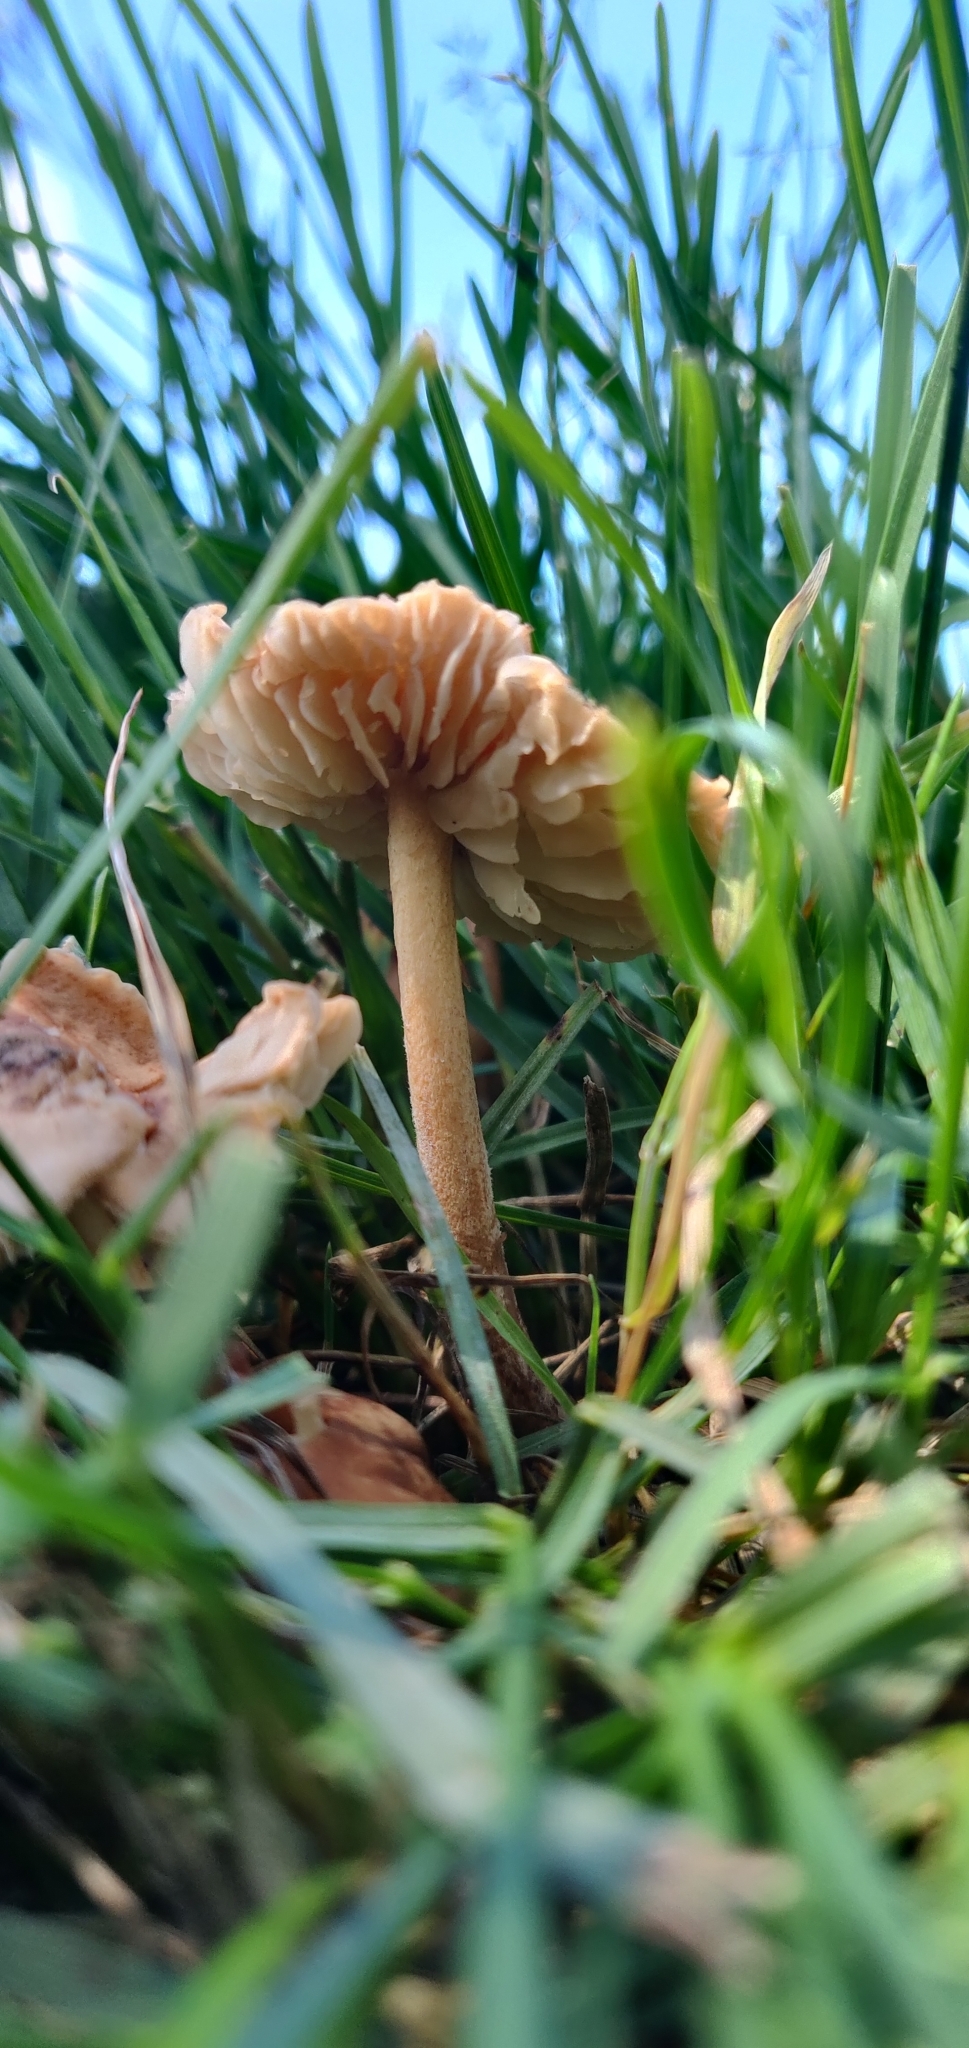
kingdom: Fungi
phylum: Basidiomycota
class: Agaricomycetes
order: Agaricales
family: Marasmiaceae
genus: Marasmius
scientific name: Marasmius oreades
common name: Fairy ring champignon
